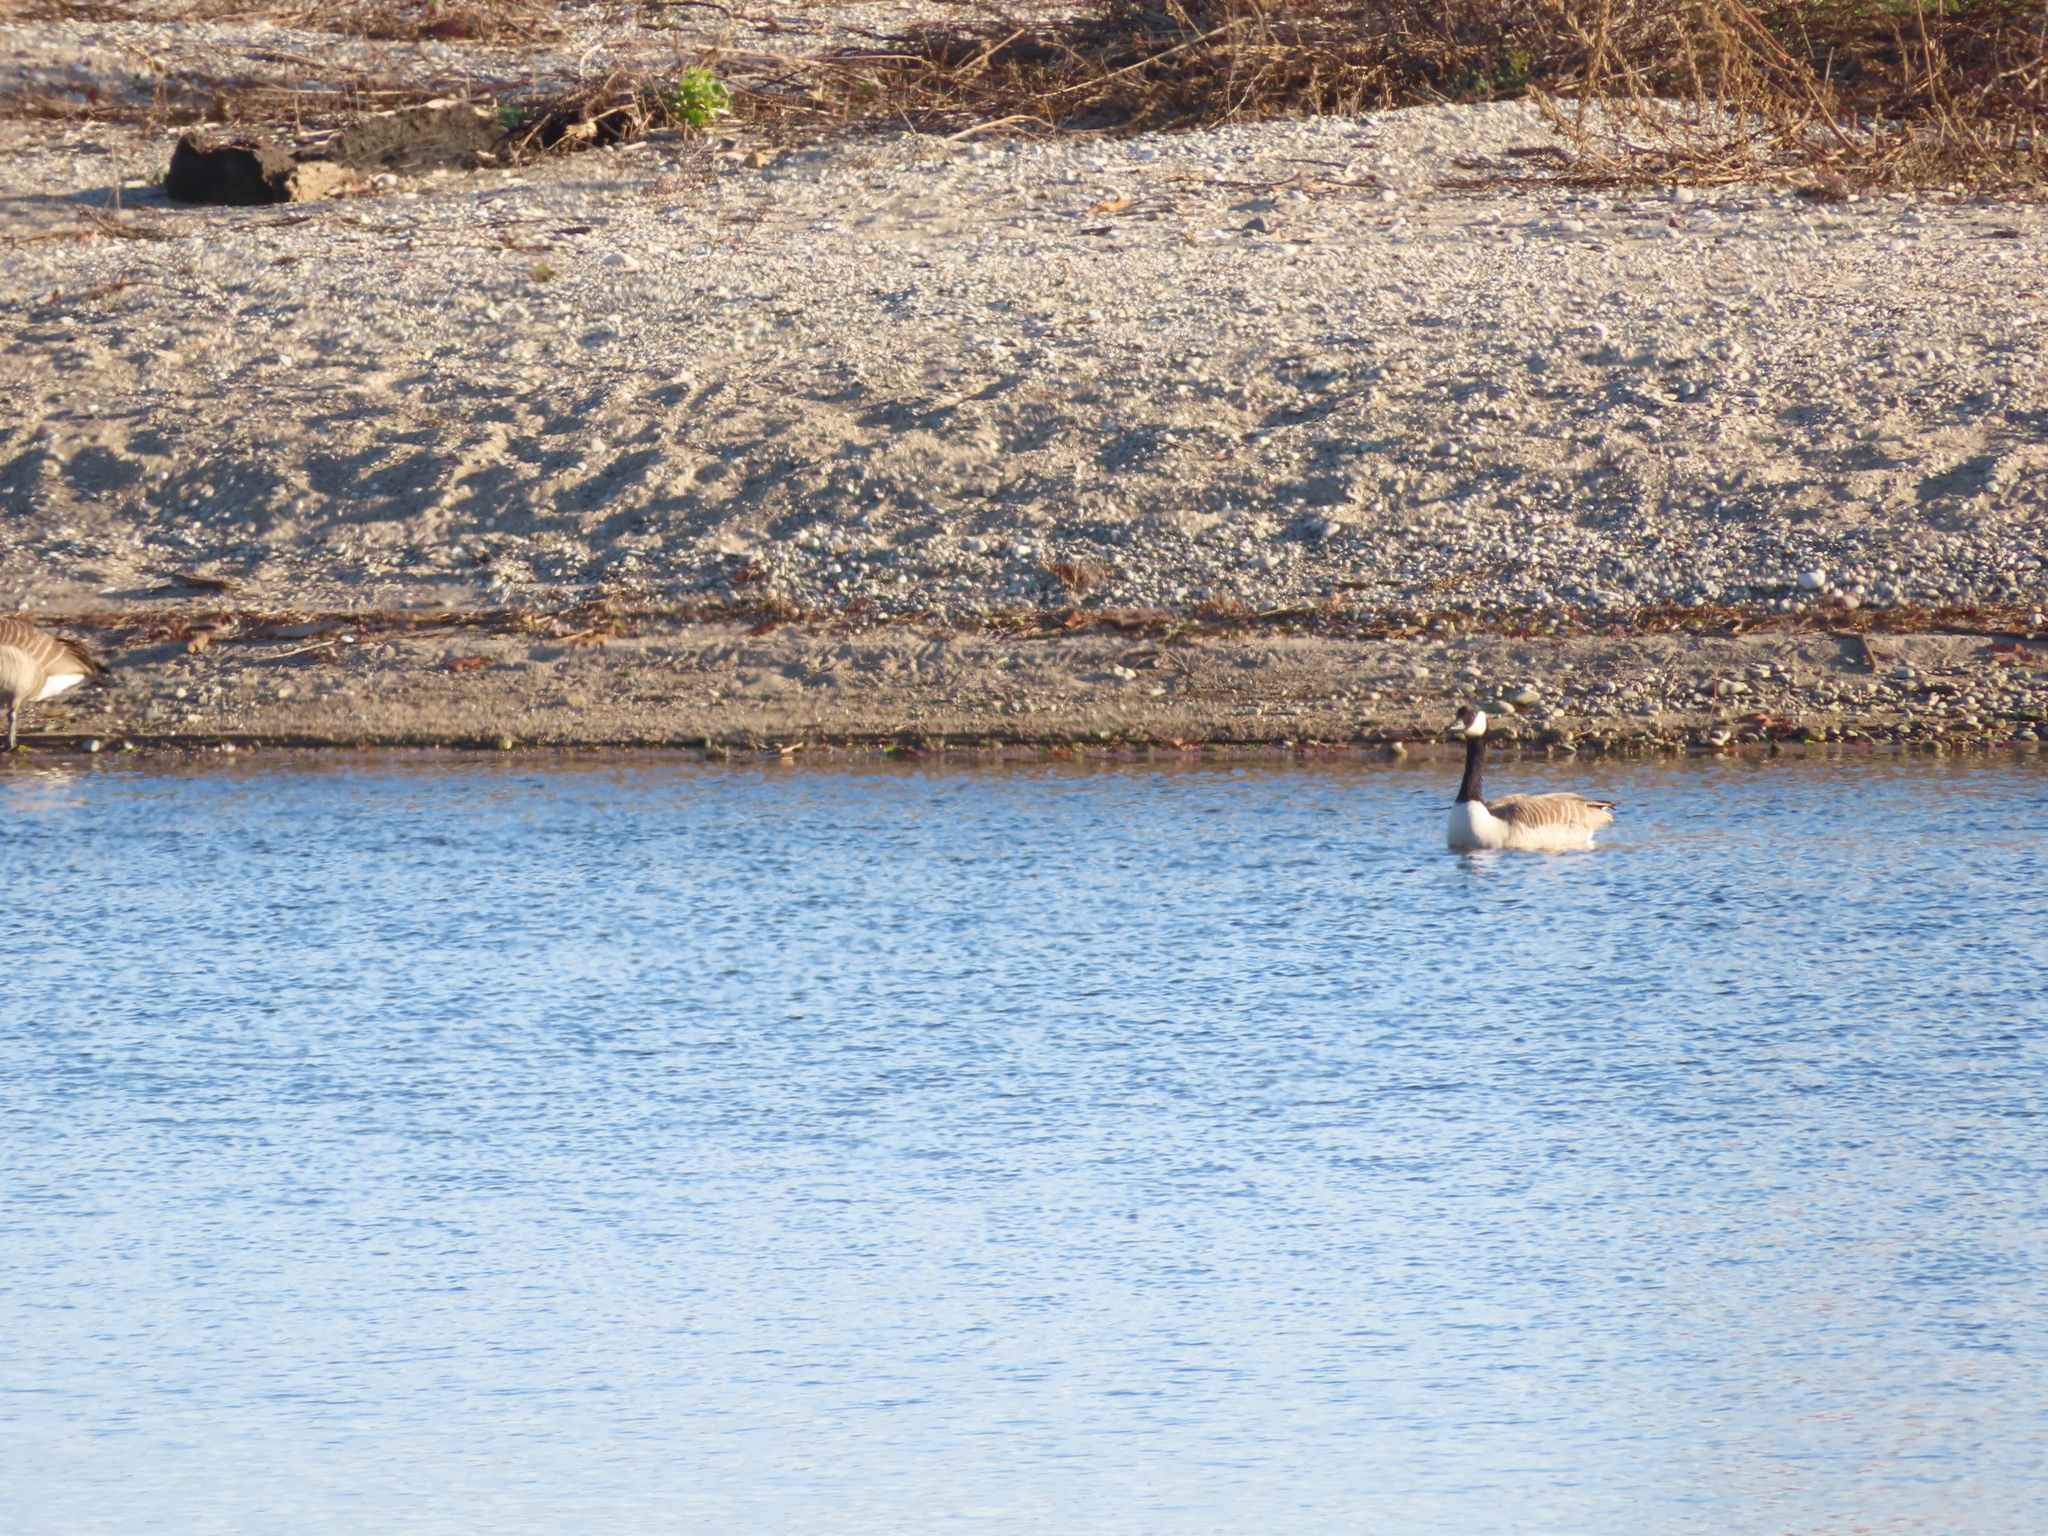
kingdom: Animalia
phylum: Chordata
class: Aves
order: Anseriformes
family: Anatidae
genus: Branta
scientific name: Branta canadensis
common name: Canada goose
